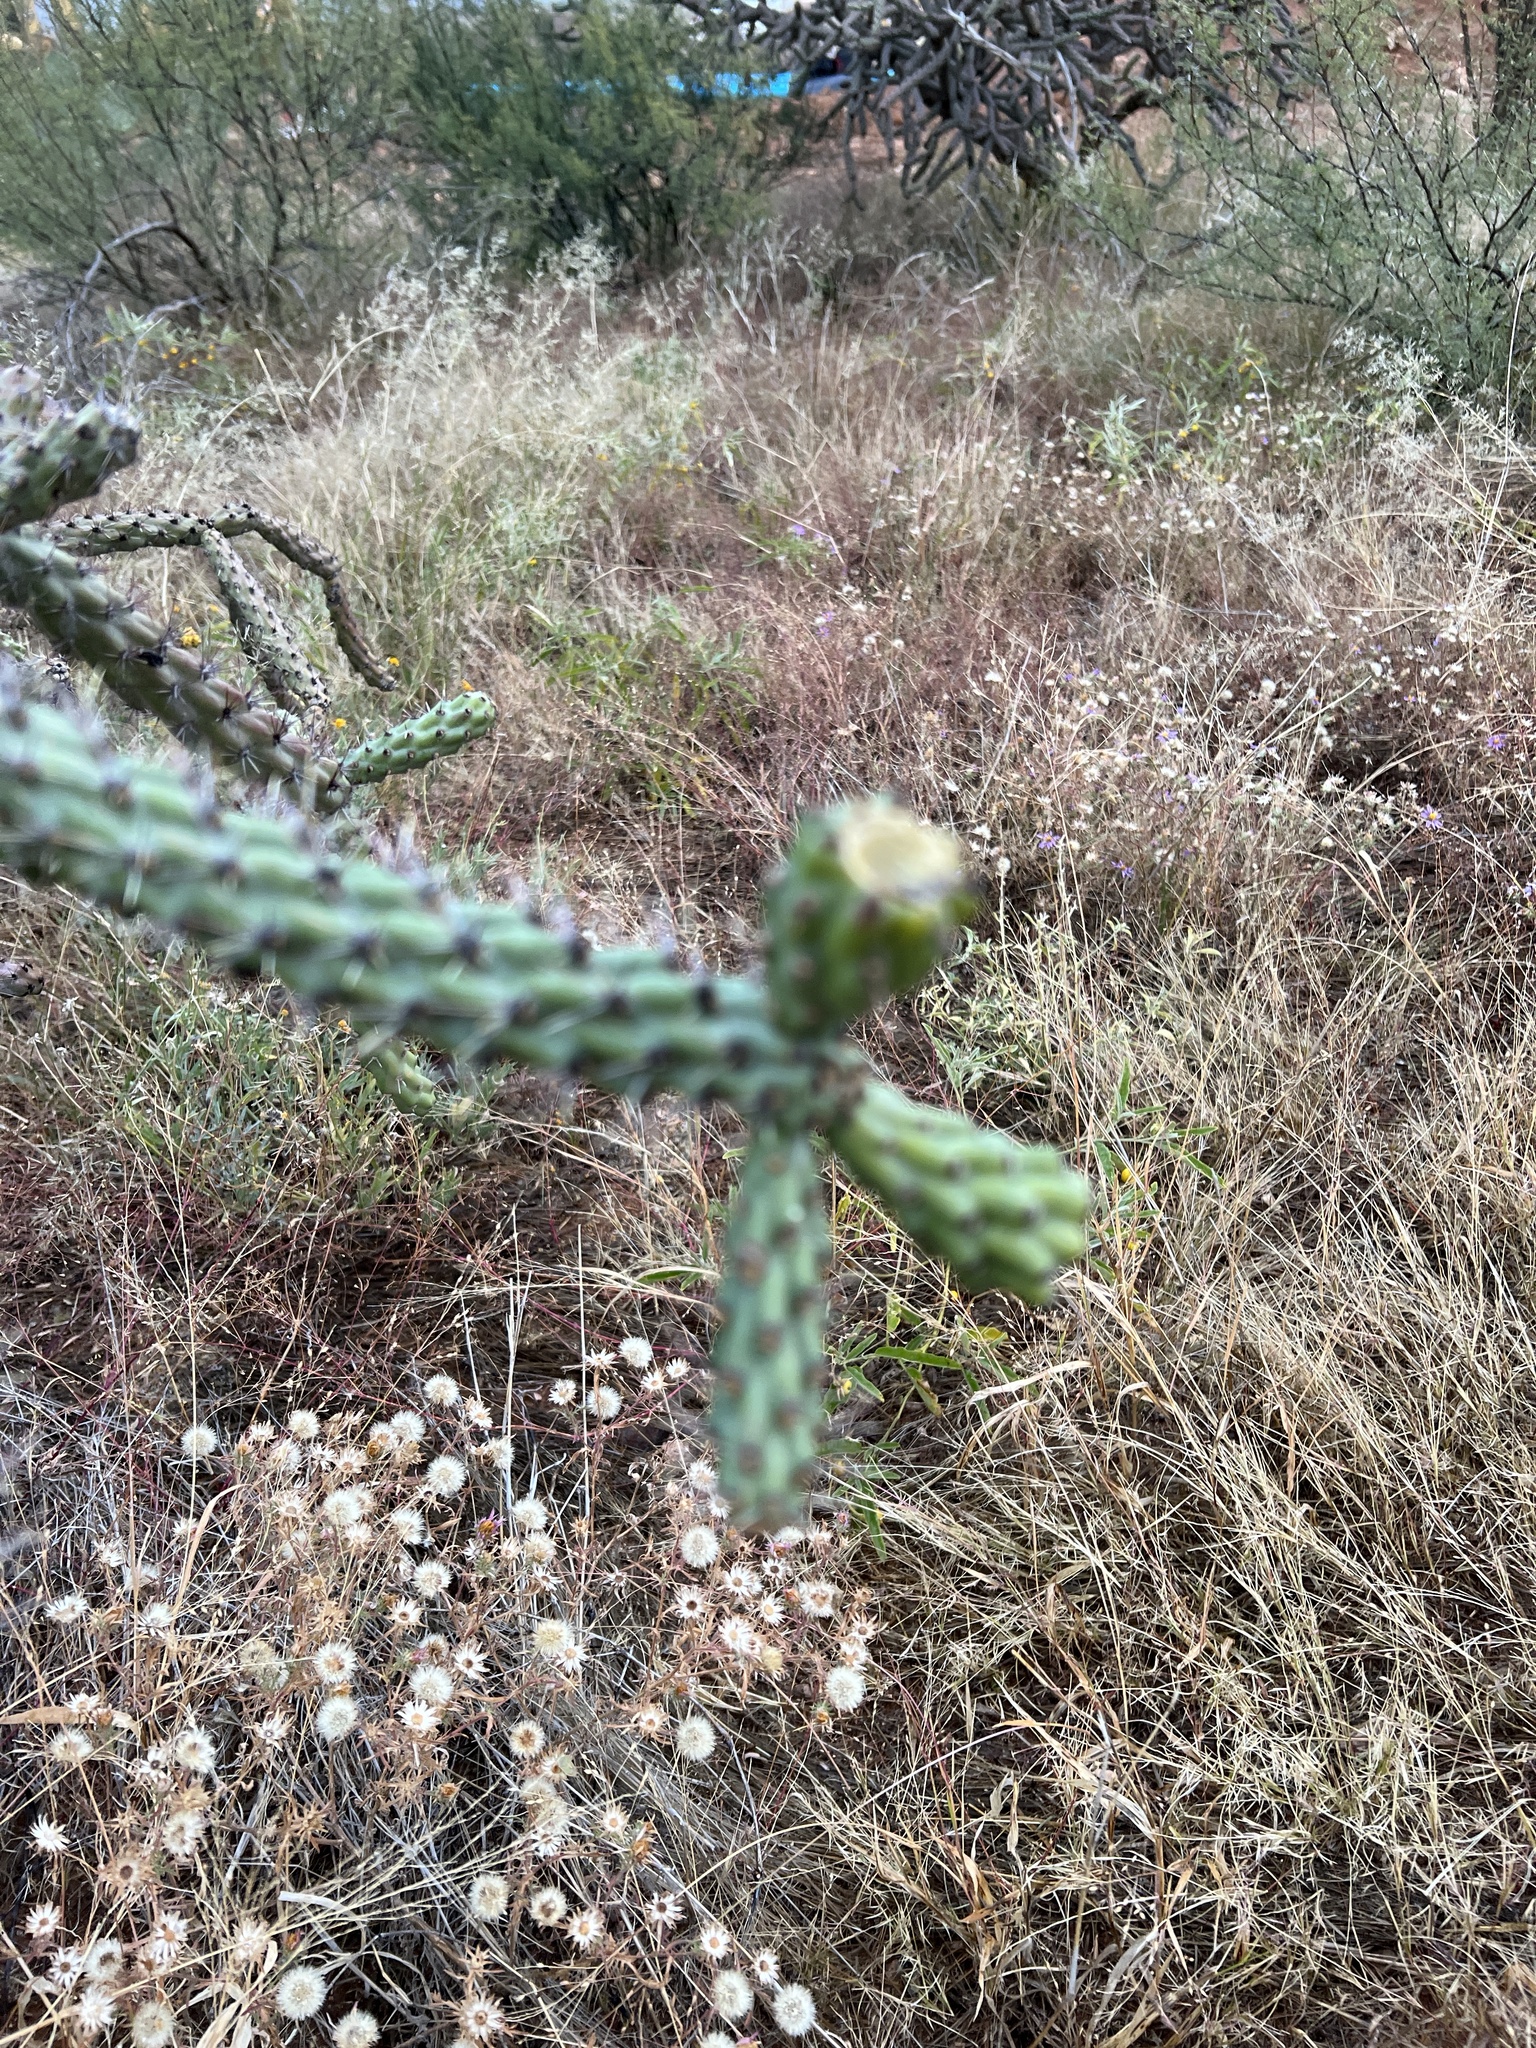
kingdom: Plantae
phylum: Tracheophyta
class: Magnoliopsida
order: Caryophyllales
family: Cactaceae
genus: Cylindropuntia
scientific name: Cylindropuntia thurberi
